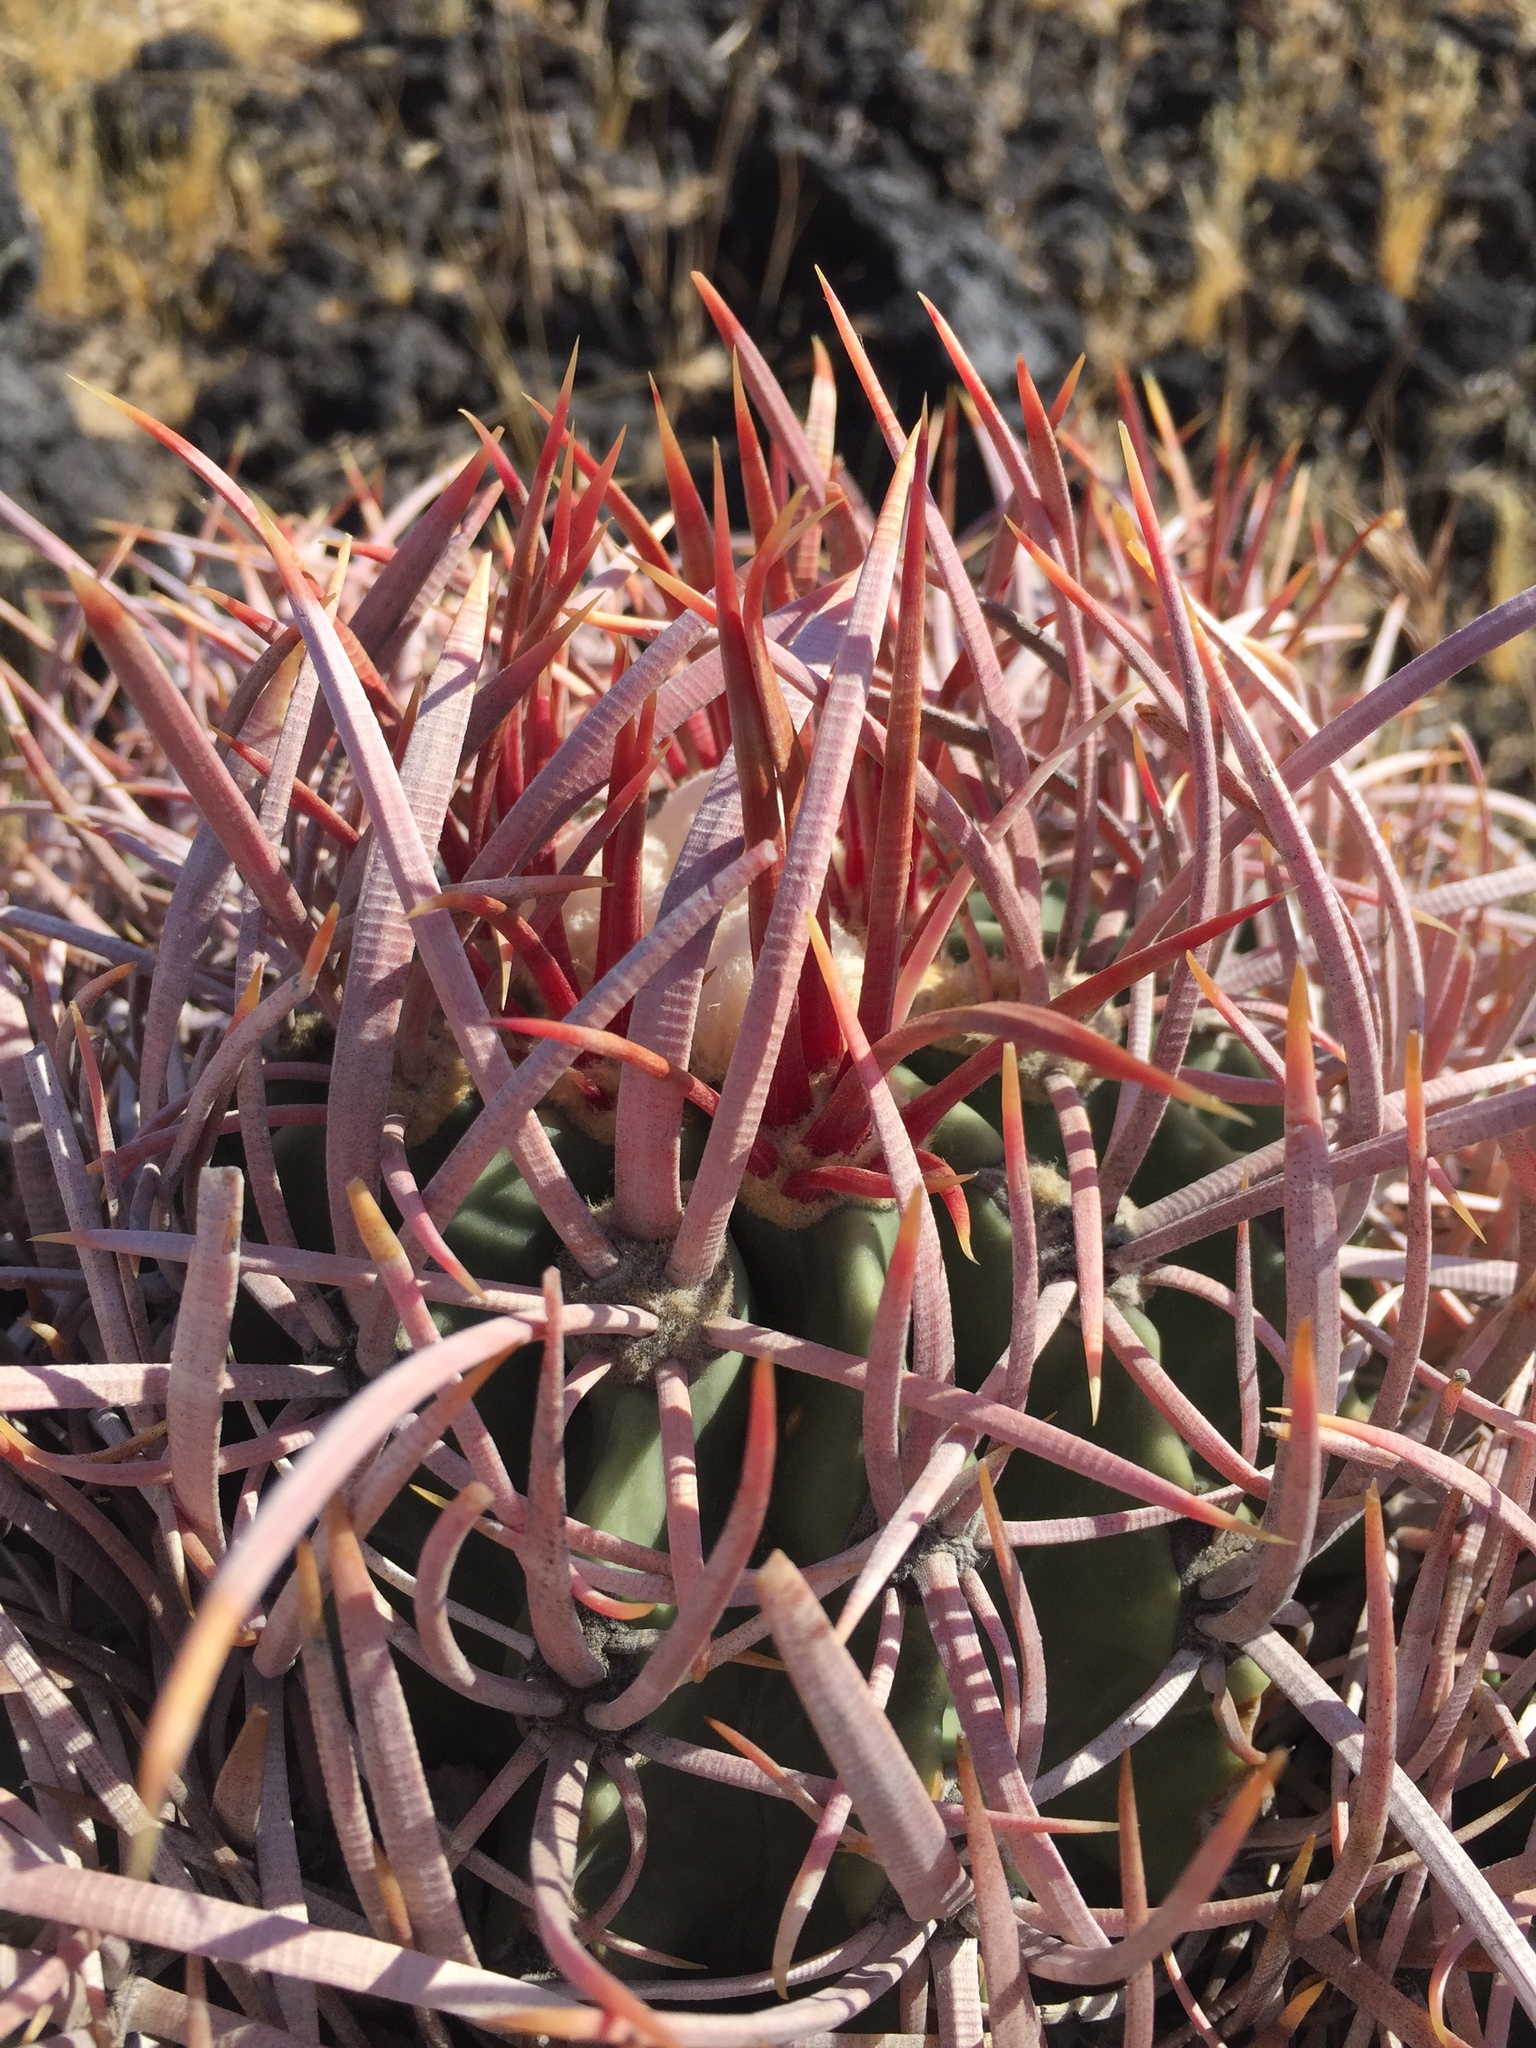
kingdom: Plantae
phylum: Tracheophyta
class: Magnoliopsida
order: Caryophyllales
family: Cactaceae
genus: Echinocactus
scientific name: Echinocactus polycephalus
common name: Cottontop cactus
